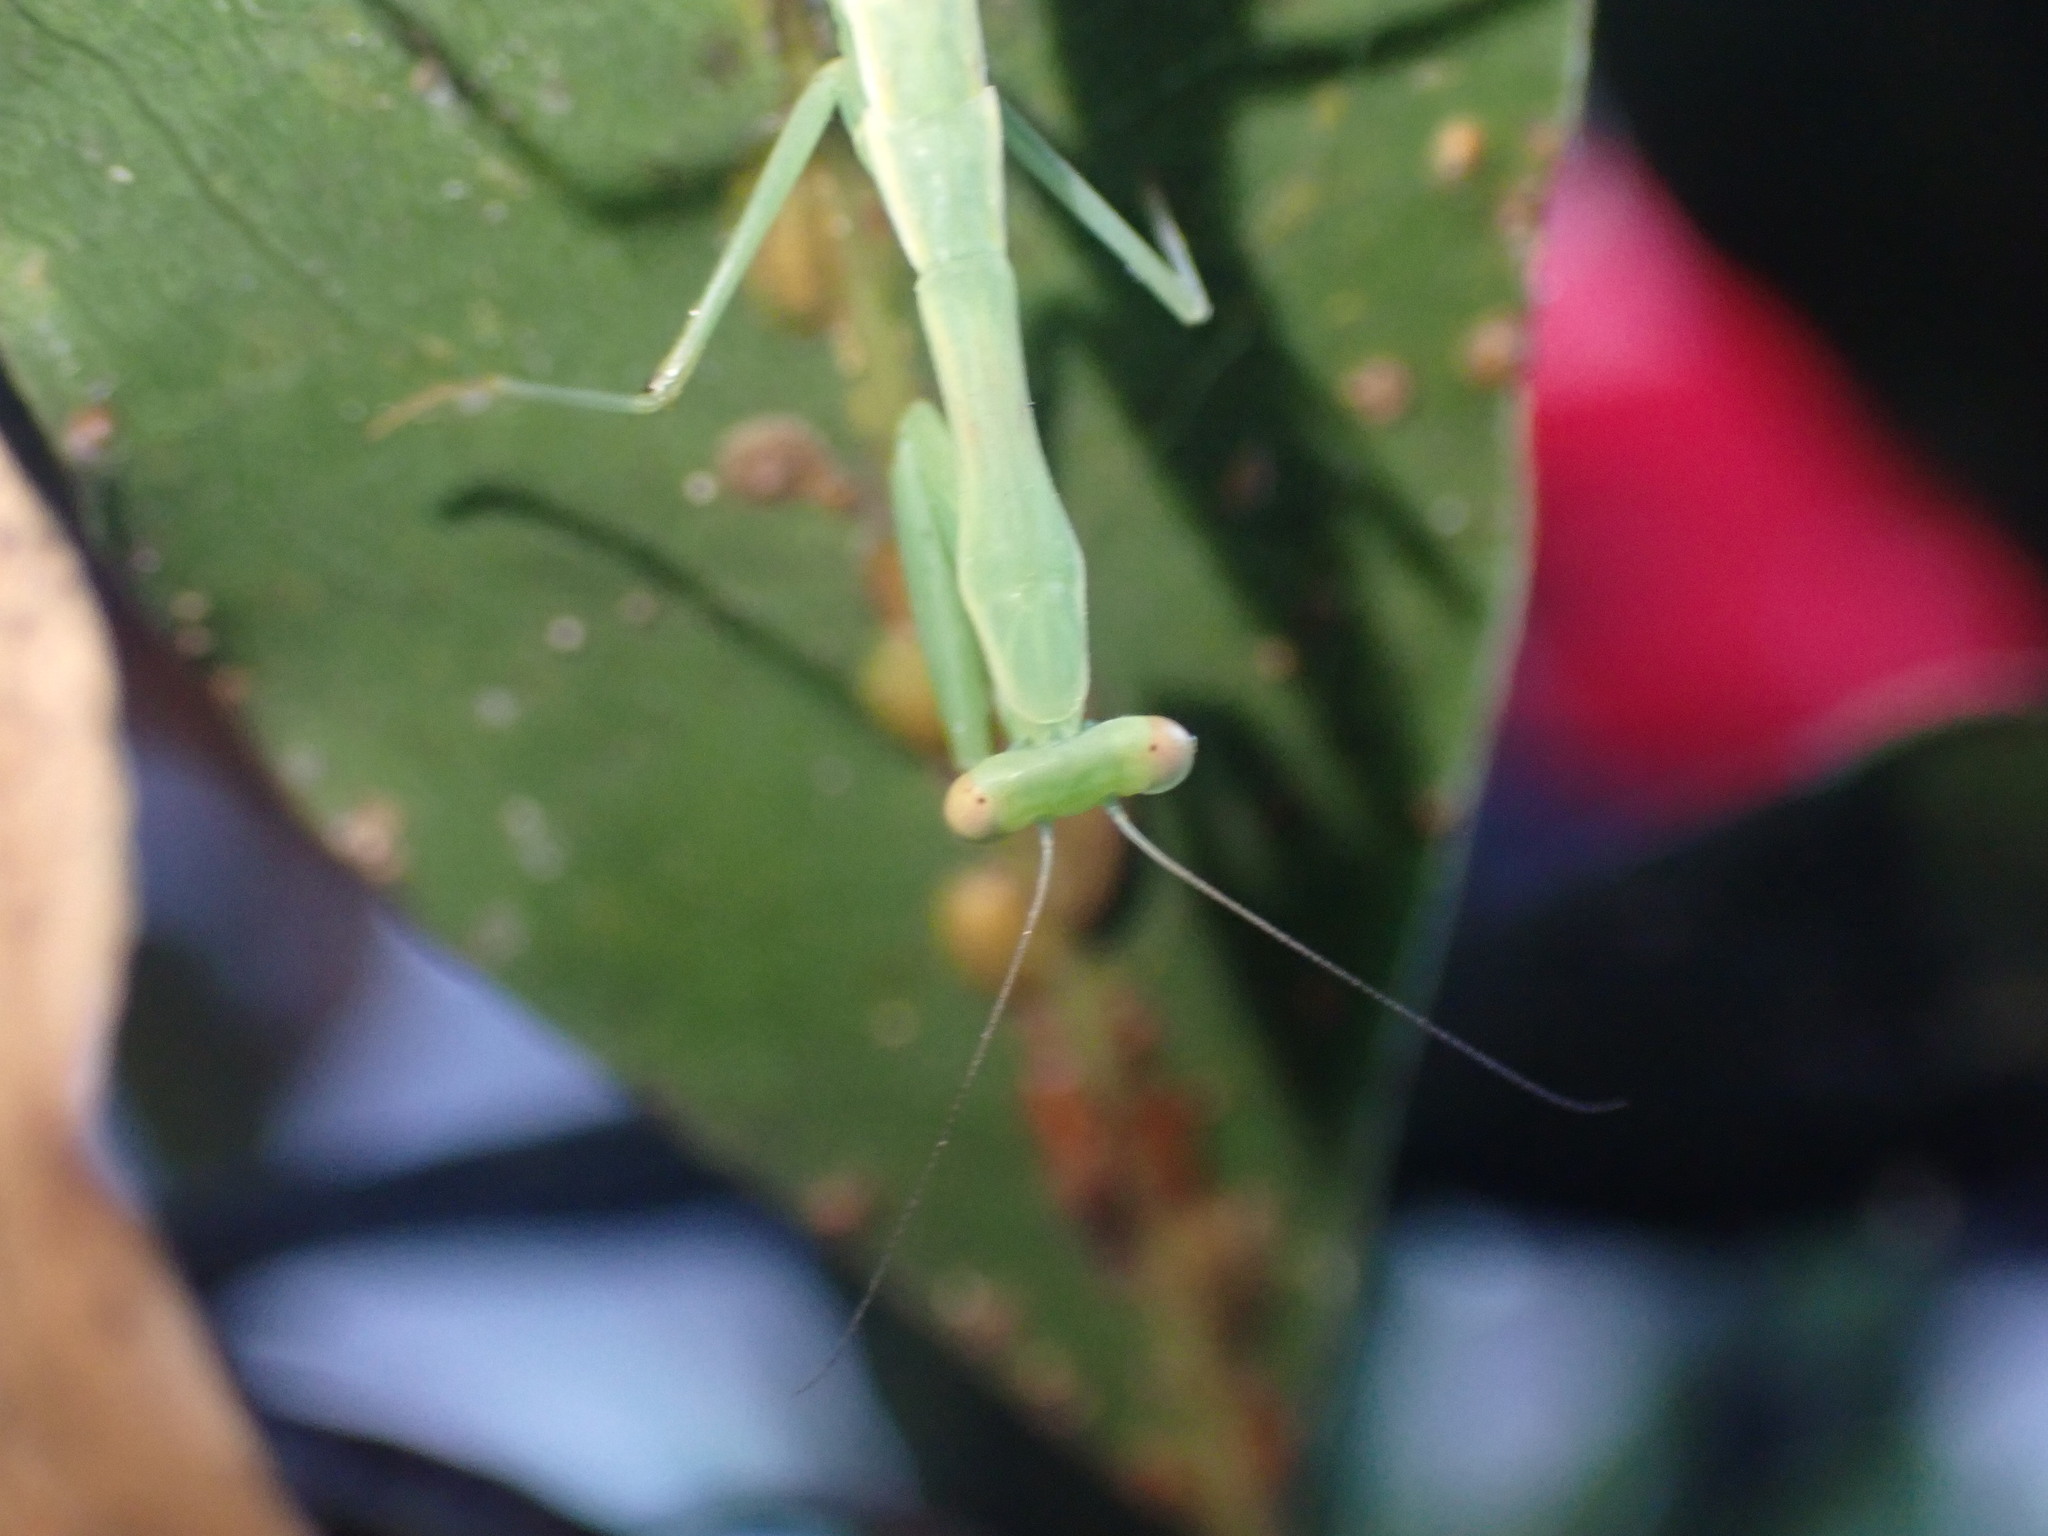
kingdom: Animalia
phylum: Arthropoda
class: Insecta
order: Mantodea
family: Miomantidae
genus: Miomantis
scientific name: Miomantis caffra
